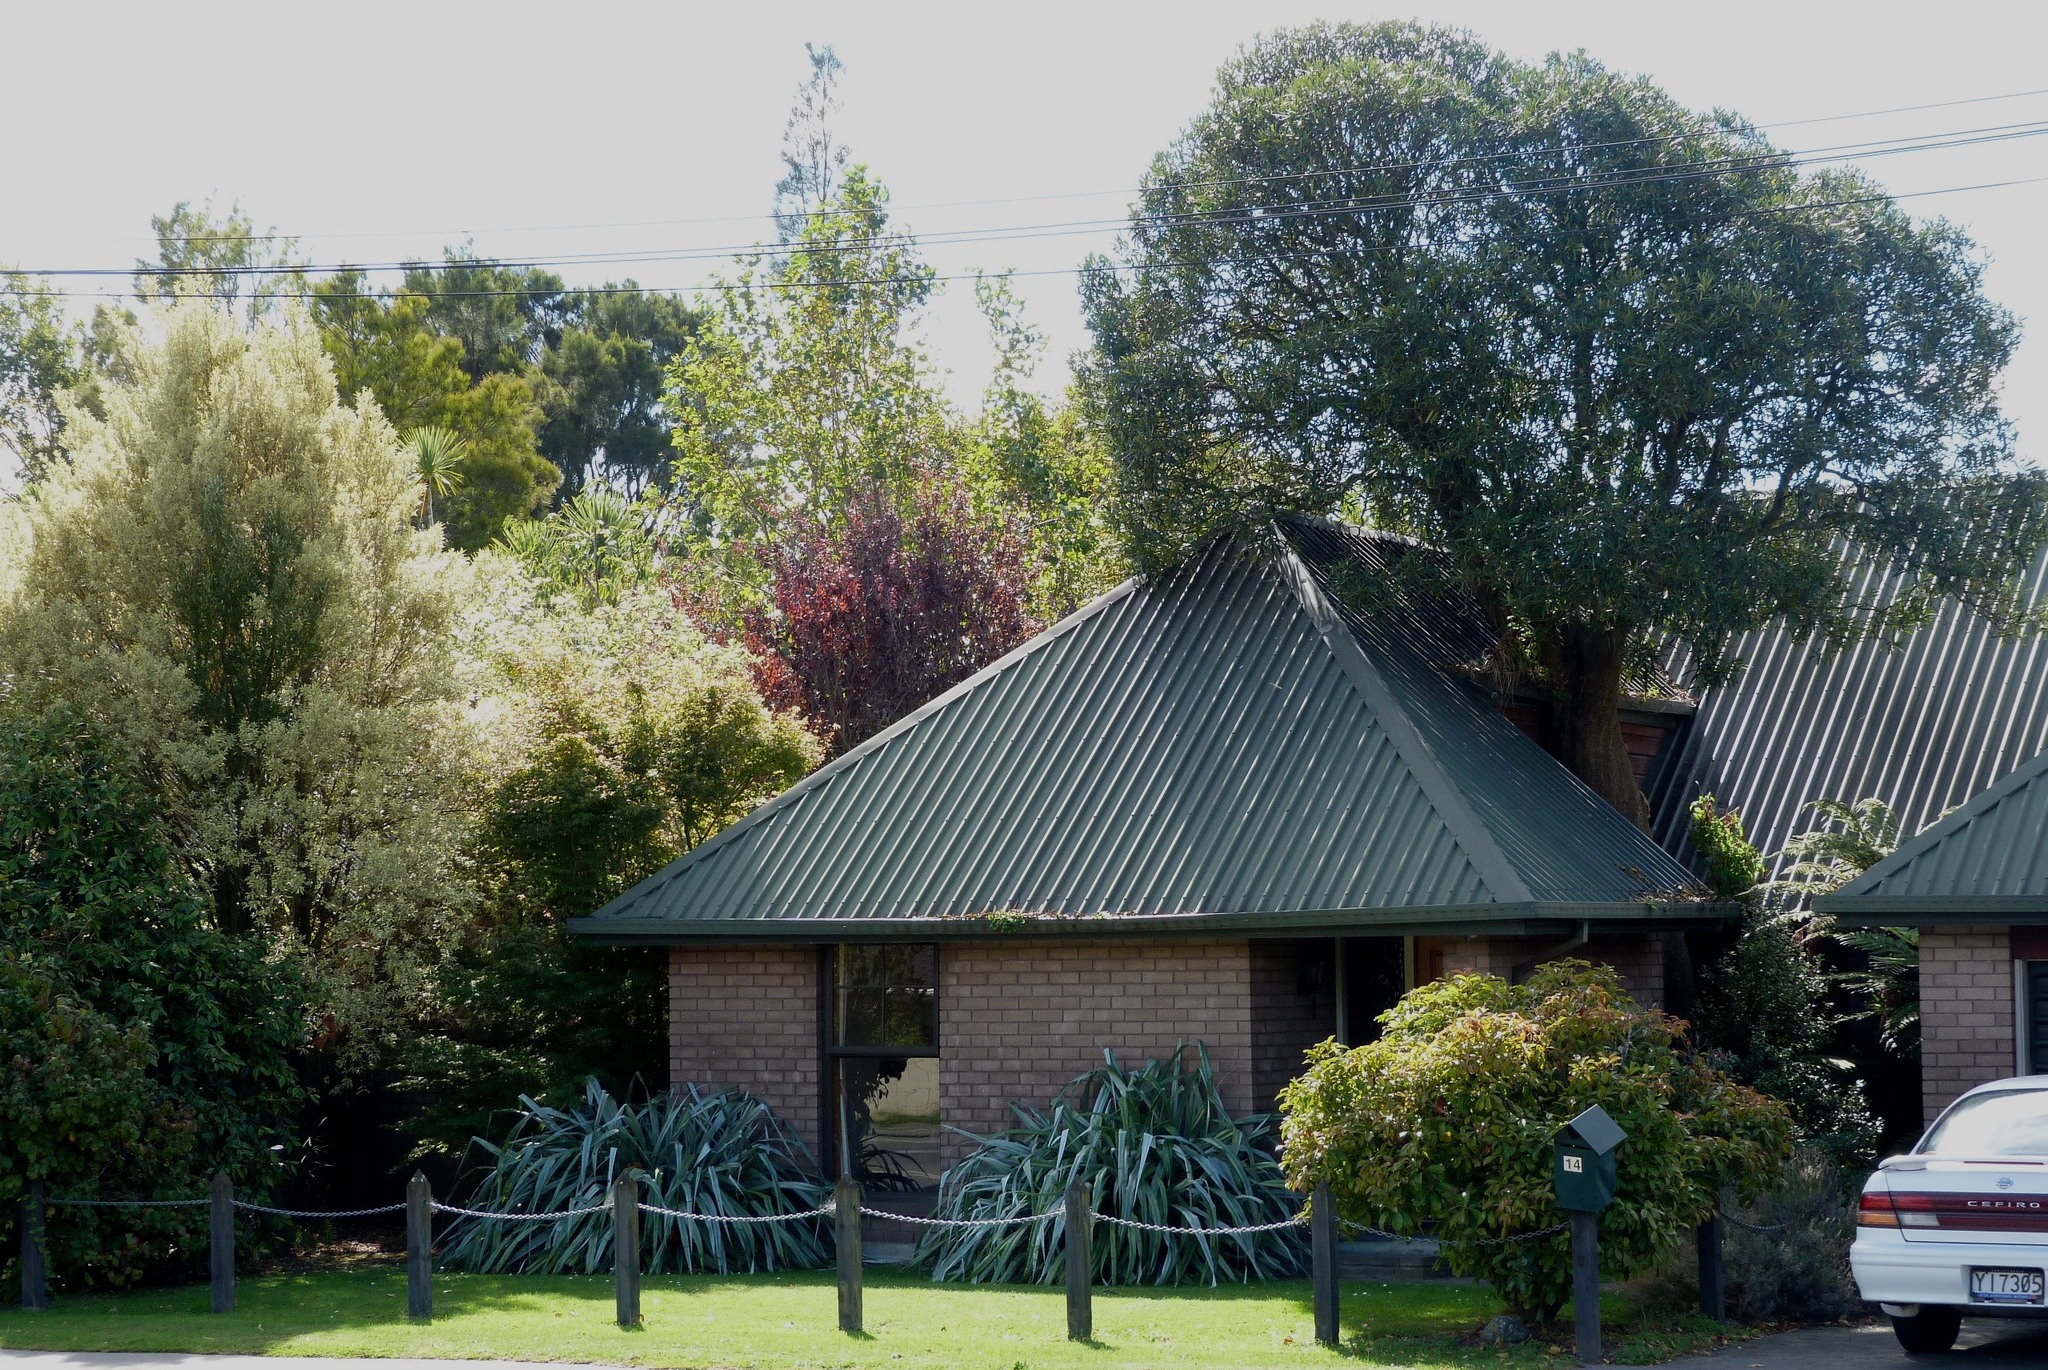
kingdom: Plantae
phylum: Tracheophyta
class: Magnoliopsida
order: Apiales
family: Araliaceae
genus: Pseudopanax
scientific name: Pseudopanax crassifolius
